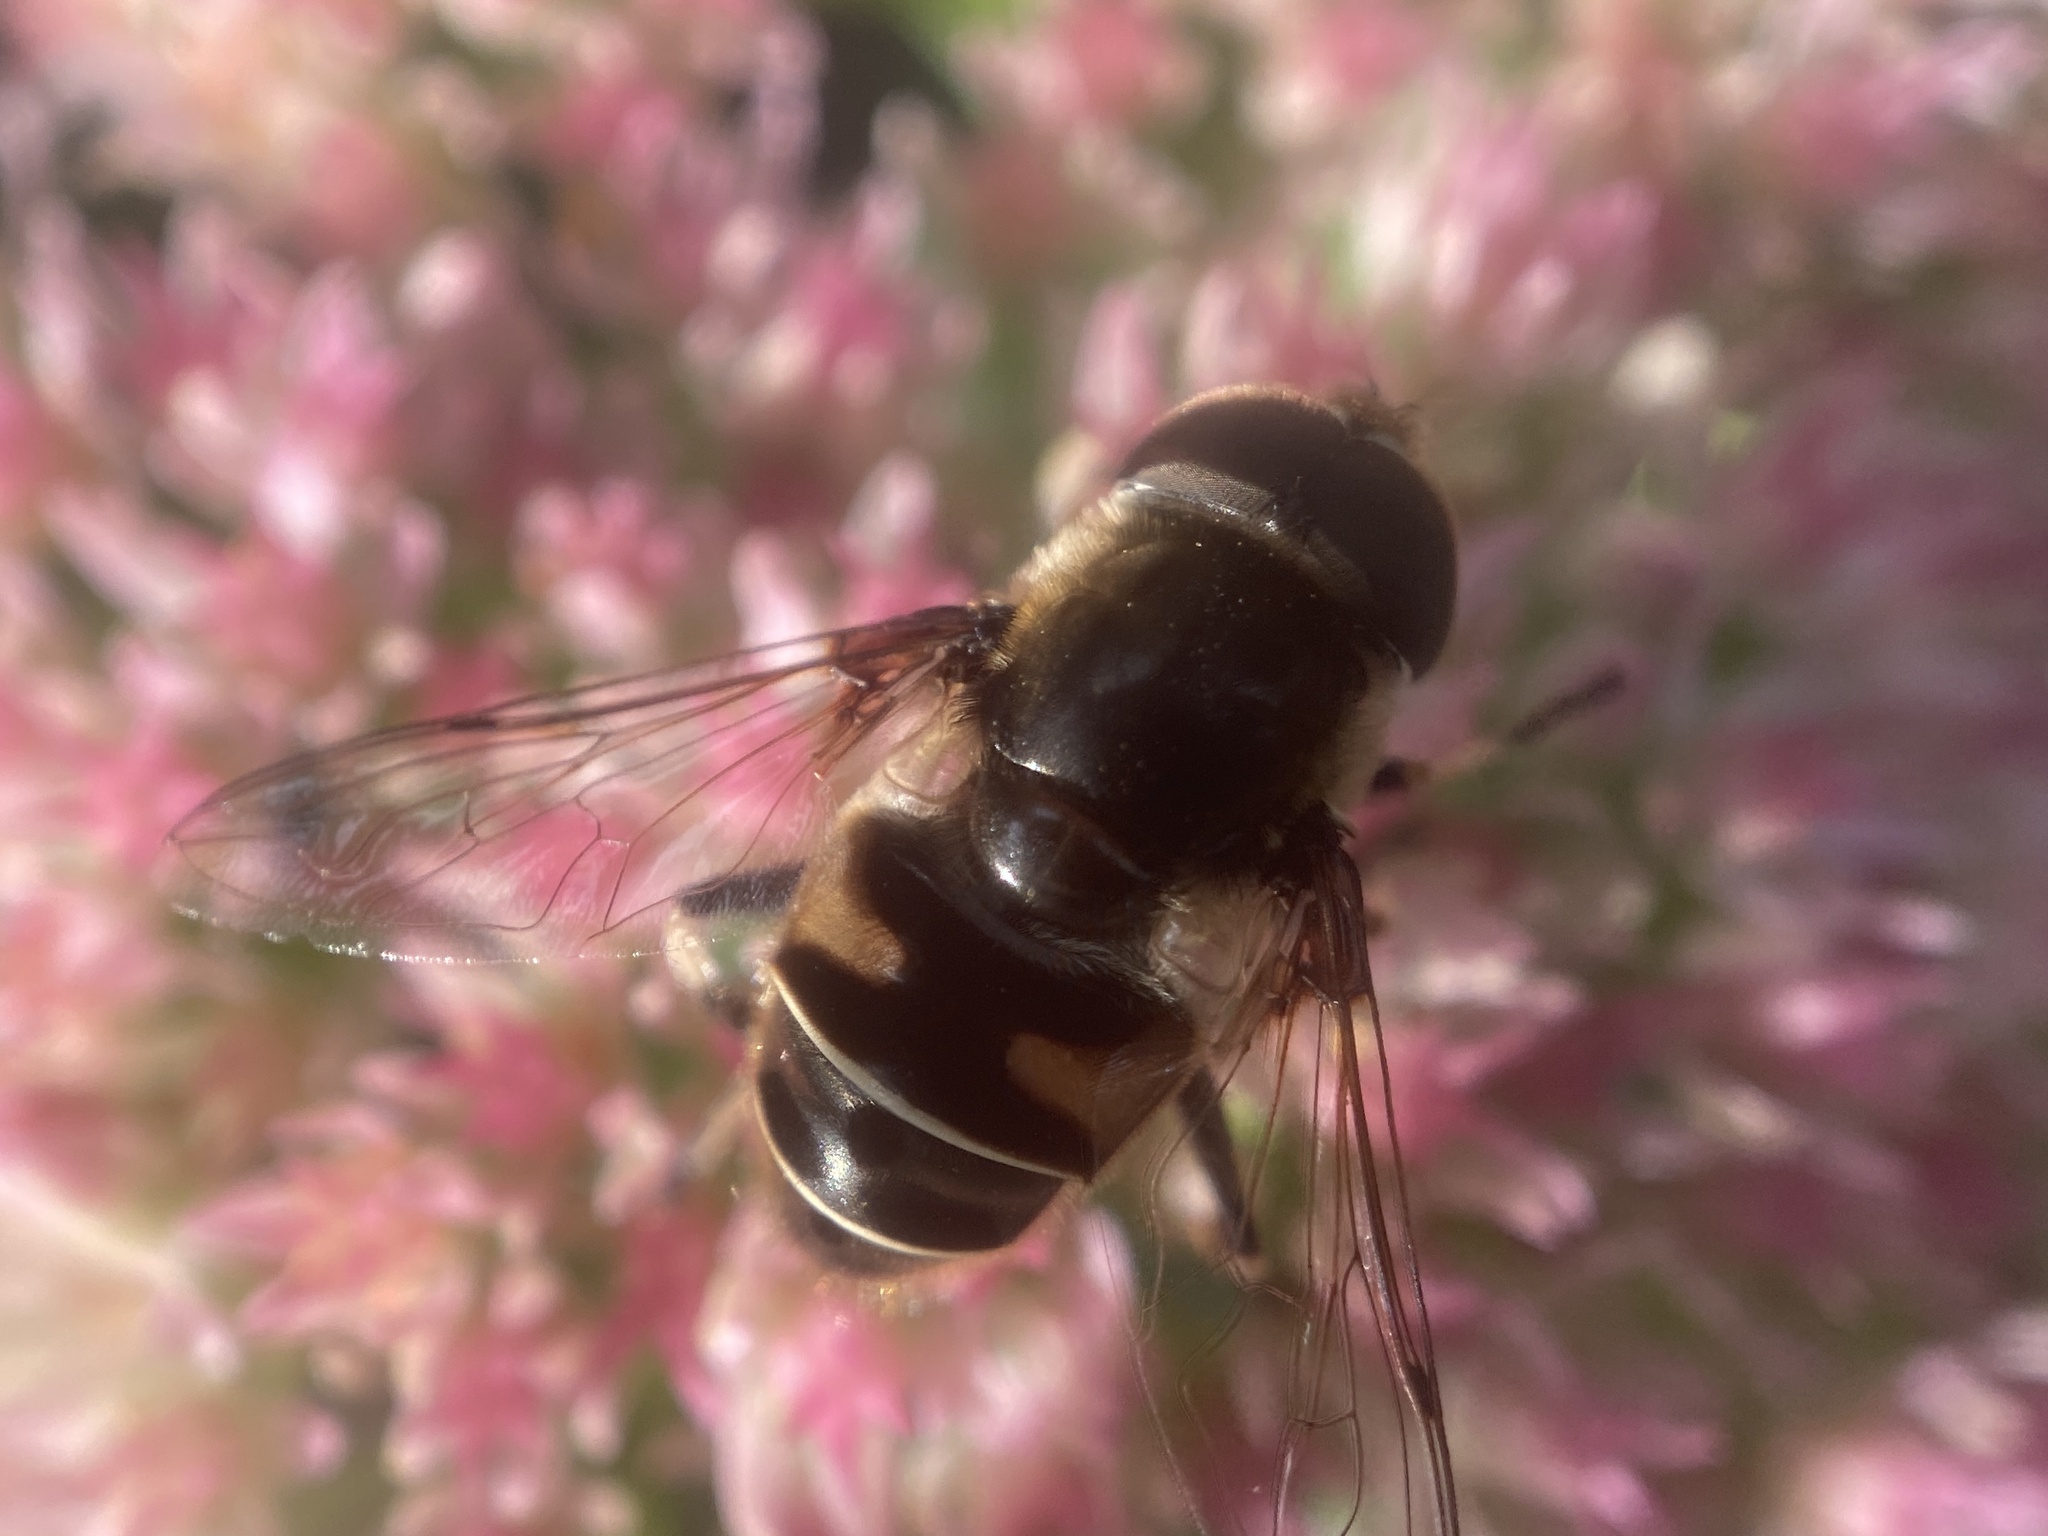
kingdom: Animalia
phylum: Arthropoda
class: Insecta
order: Diptera
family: Syrphidae
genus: Eristalis
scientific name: Eristalis dimidiata
